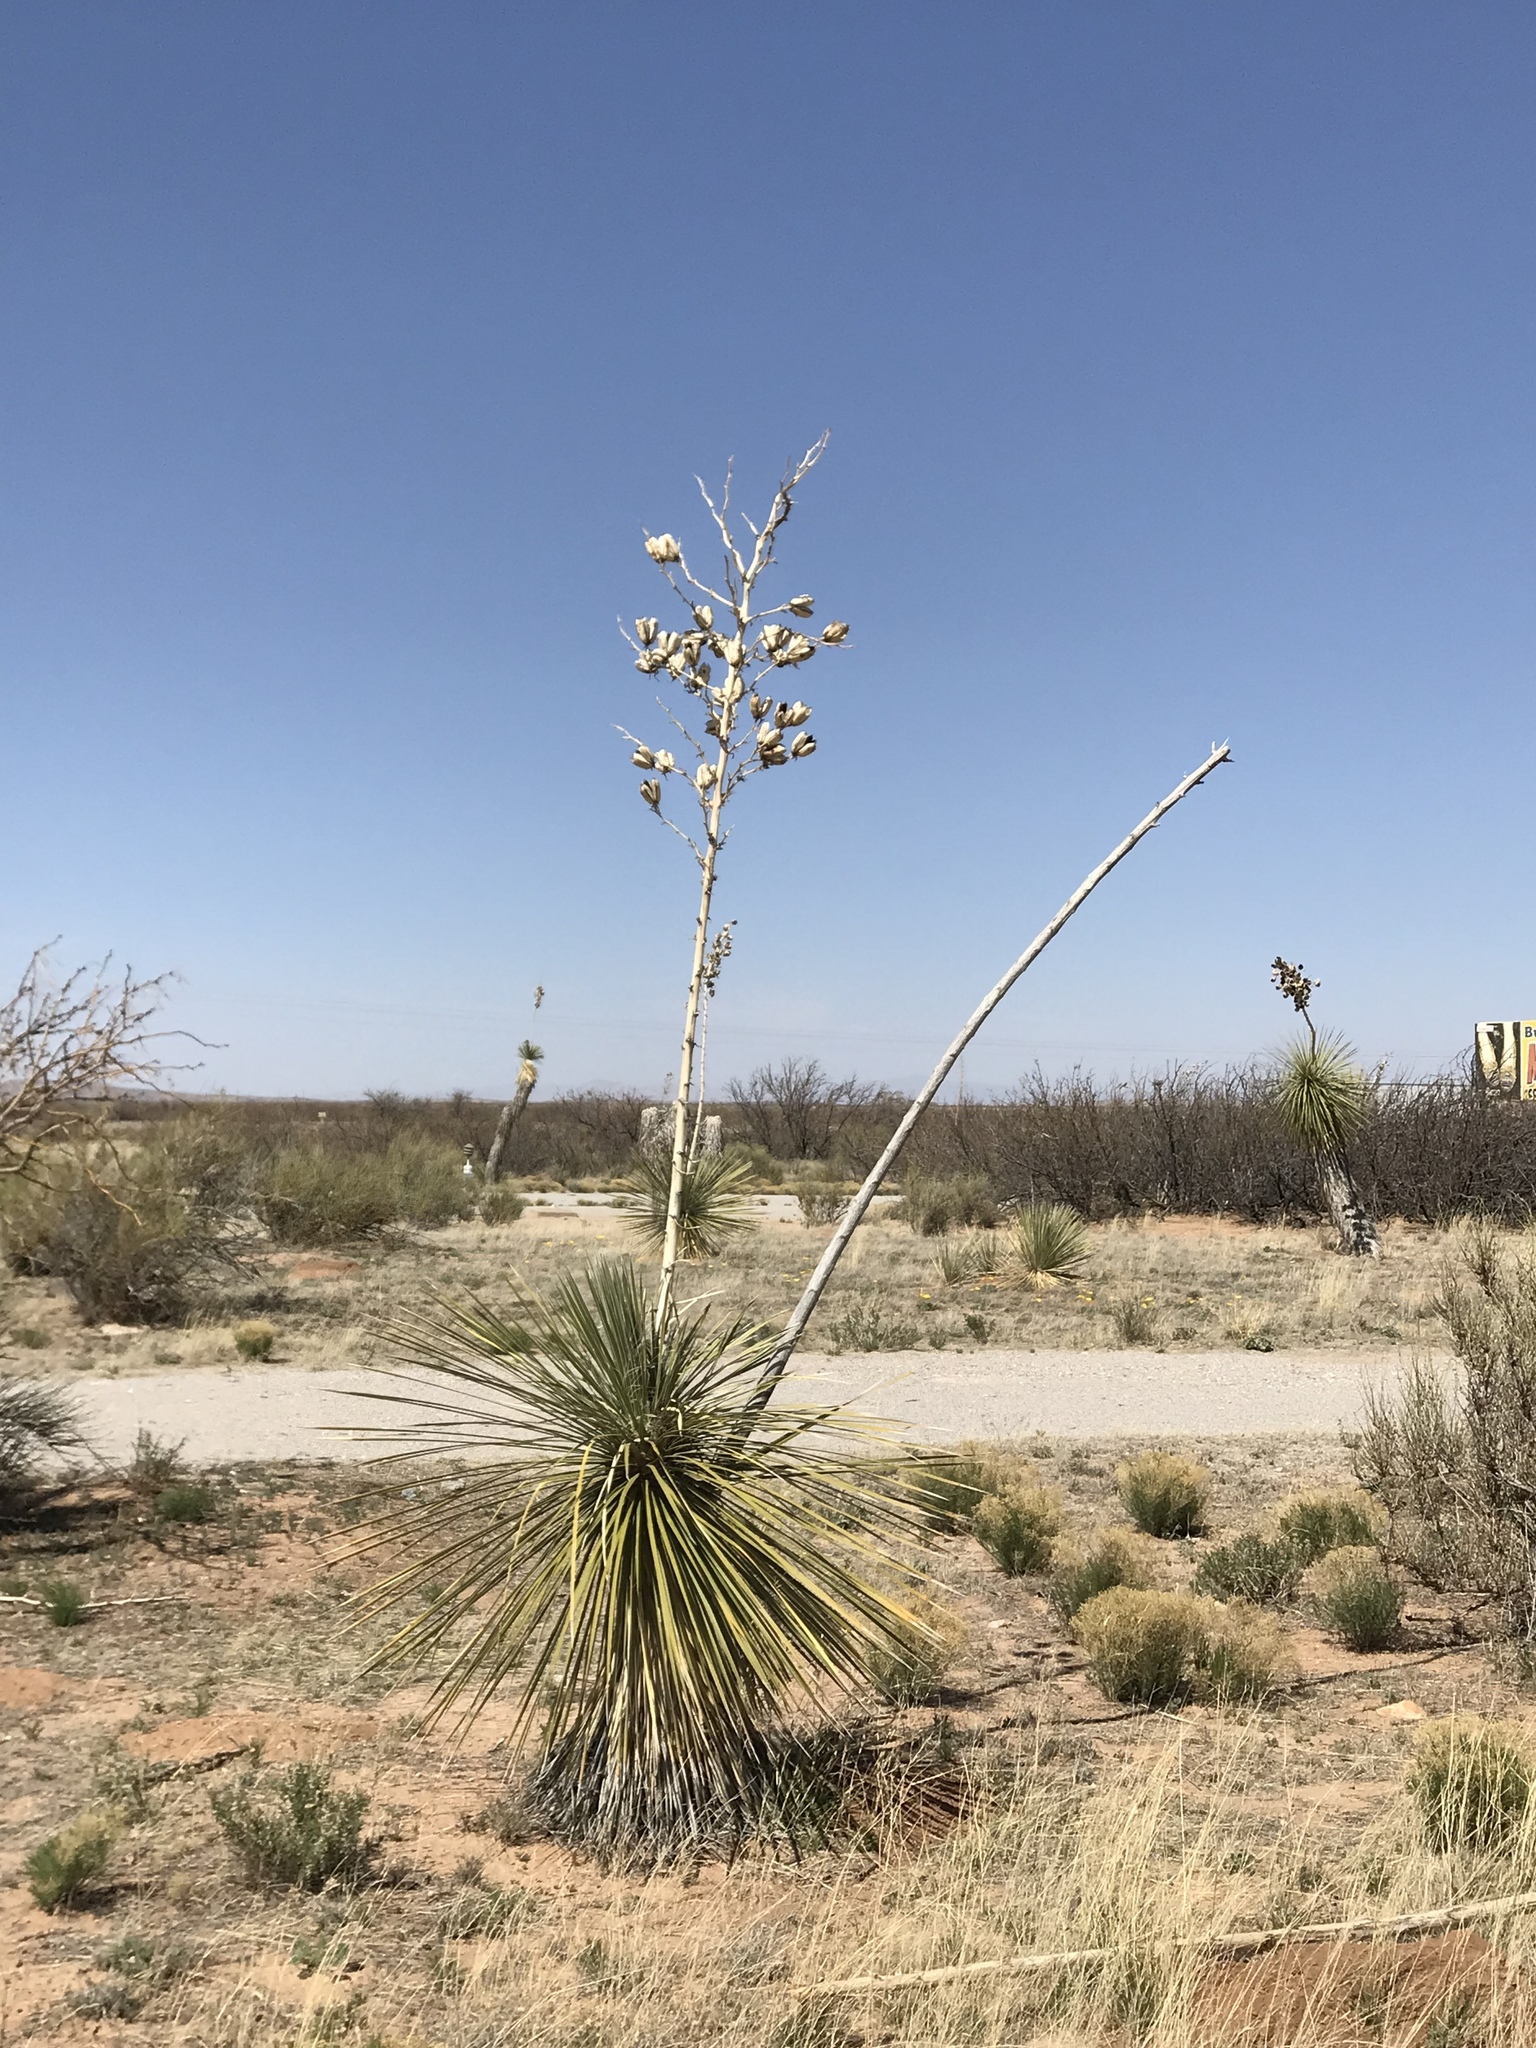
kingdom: Plantae
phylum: Tracheophyta
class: Liliopsida
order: Asparagales
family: Asparagaceae
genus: Yucca
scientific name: Yucca elata
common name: Palmella
